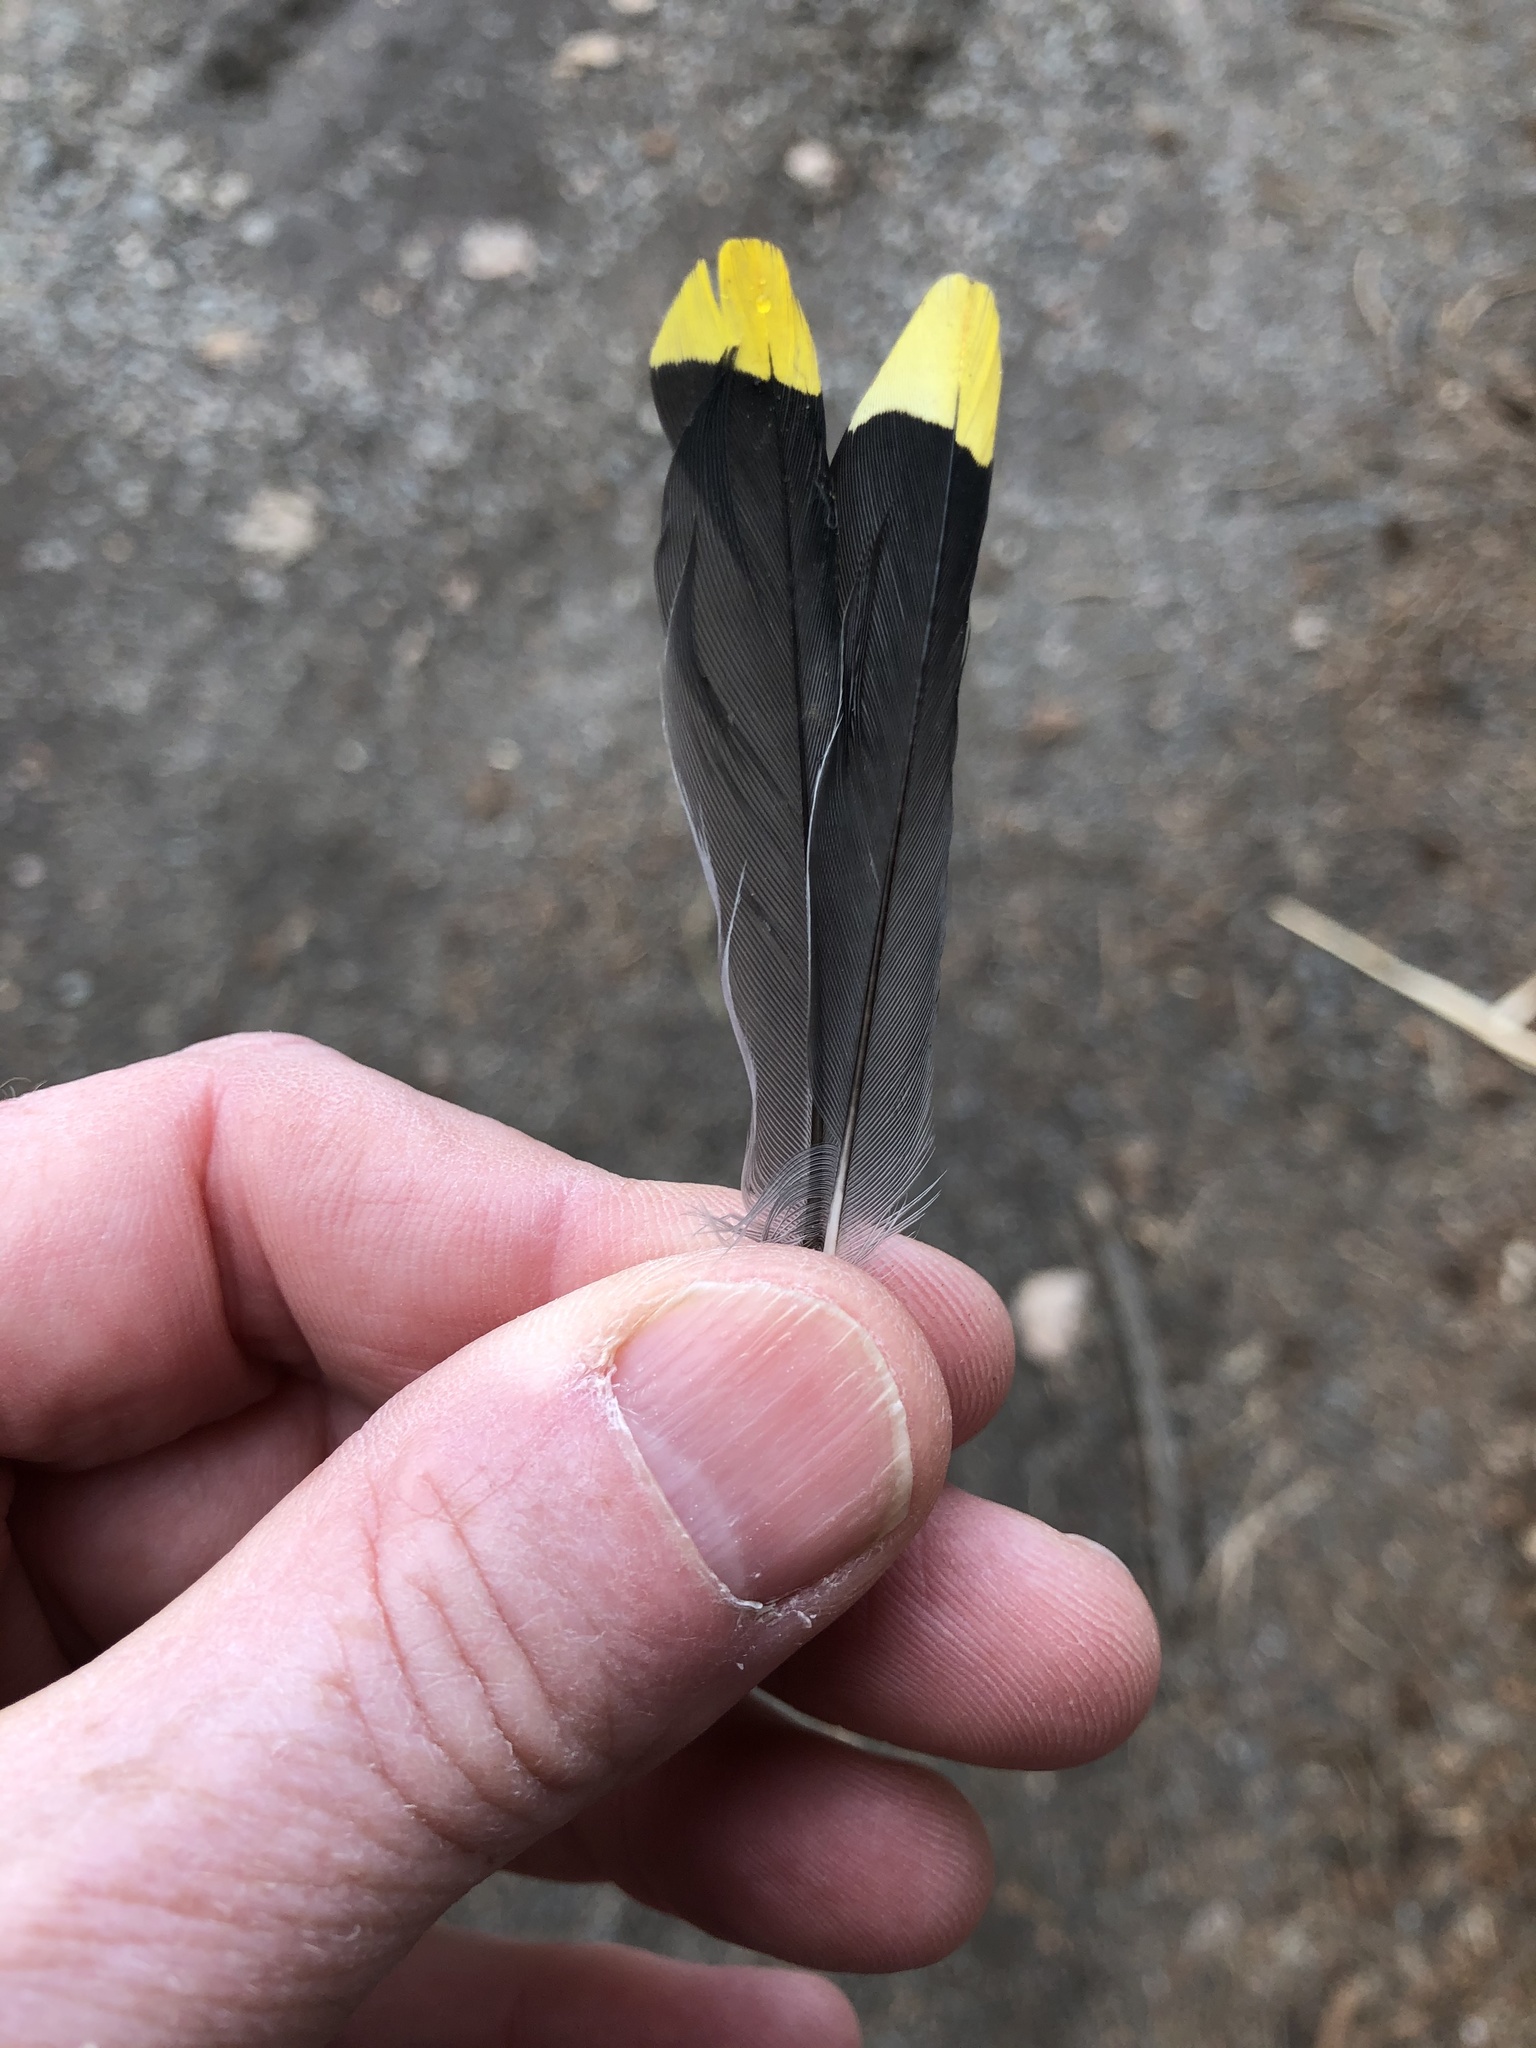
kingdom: Animalia
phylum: Chordata
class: Aves
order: Passeriformes
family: Bombycillidae
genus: Bombycilla
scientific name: Bombycilla cedrorum
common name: Cedar waxwing
